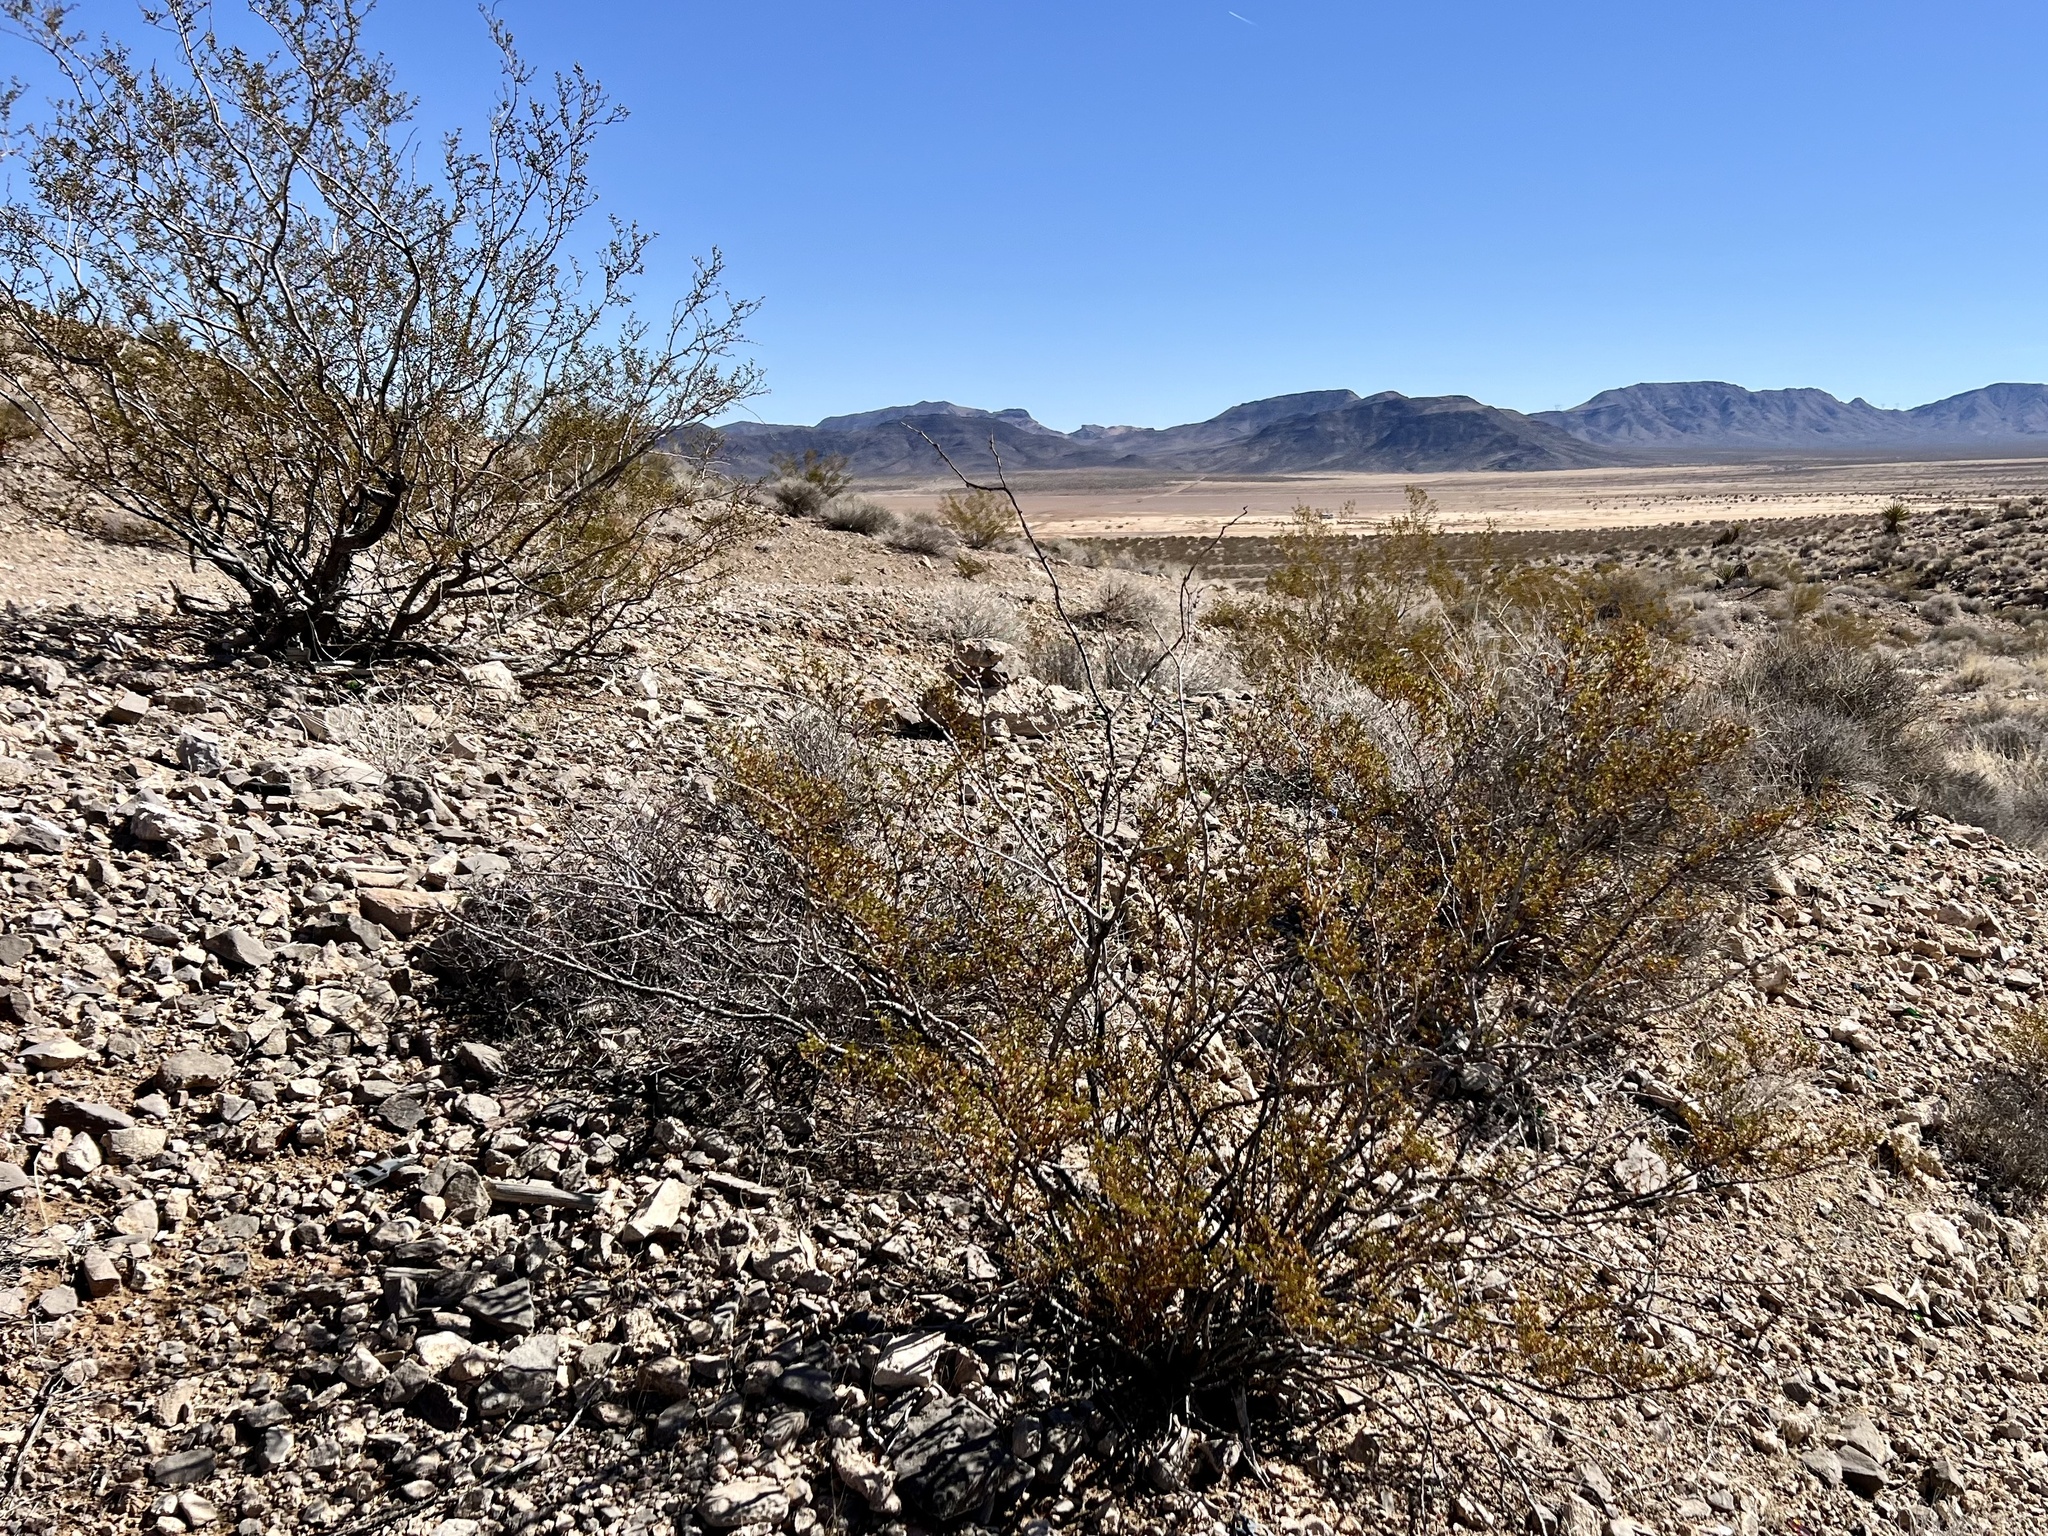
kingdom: Plantae
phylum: Tracheophyta
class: Magnoliopsida
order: Zygophyllales
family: Zygophyllaceae
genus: Larrea
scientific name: Larrea tridentata
